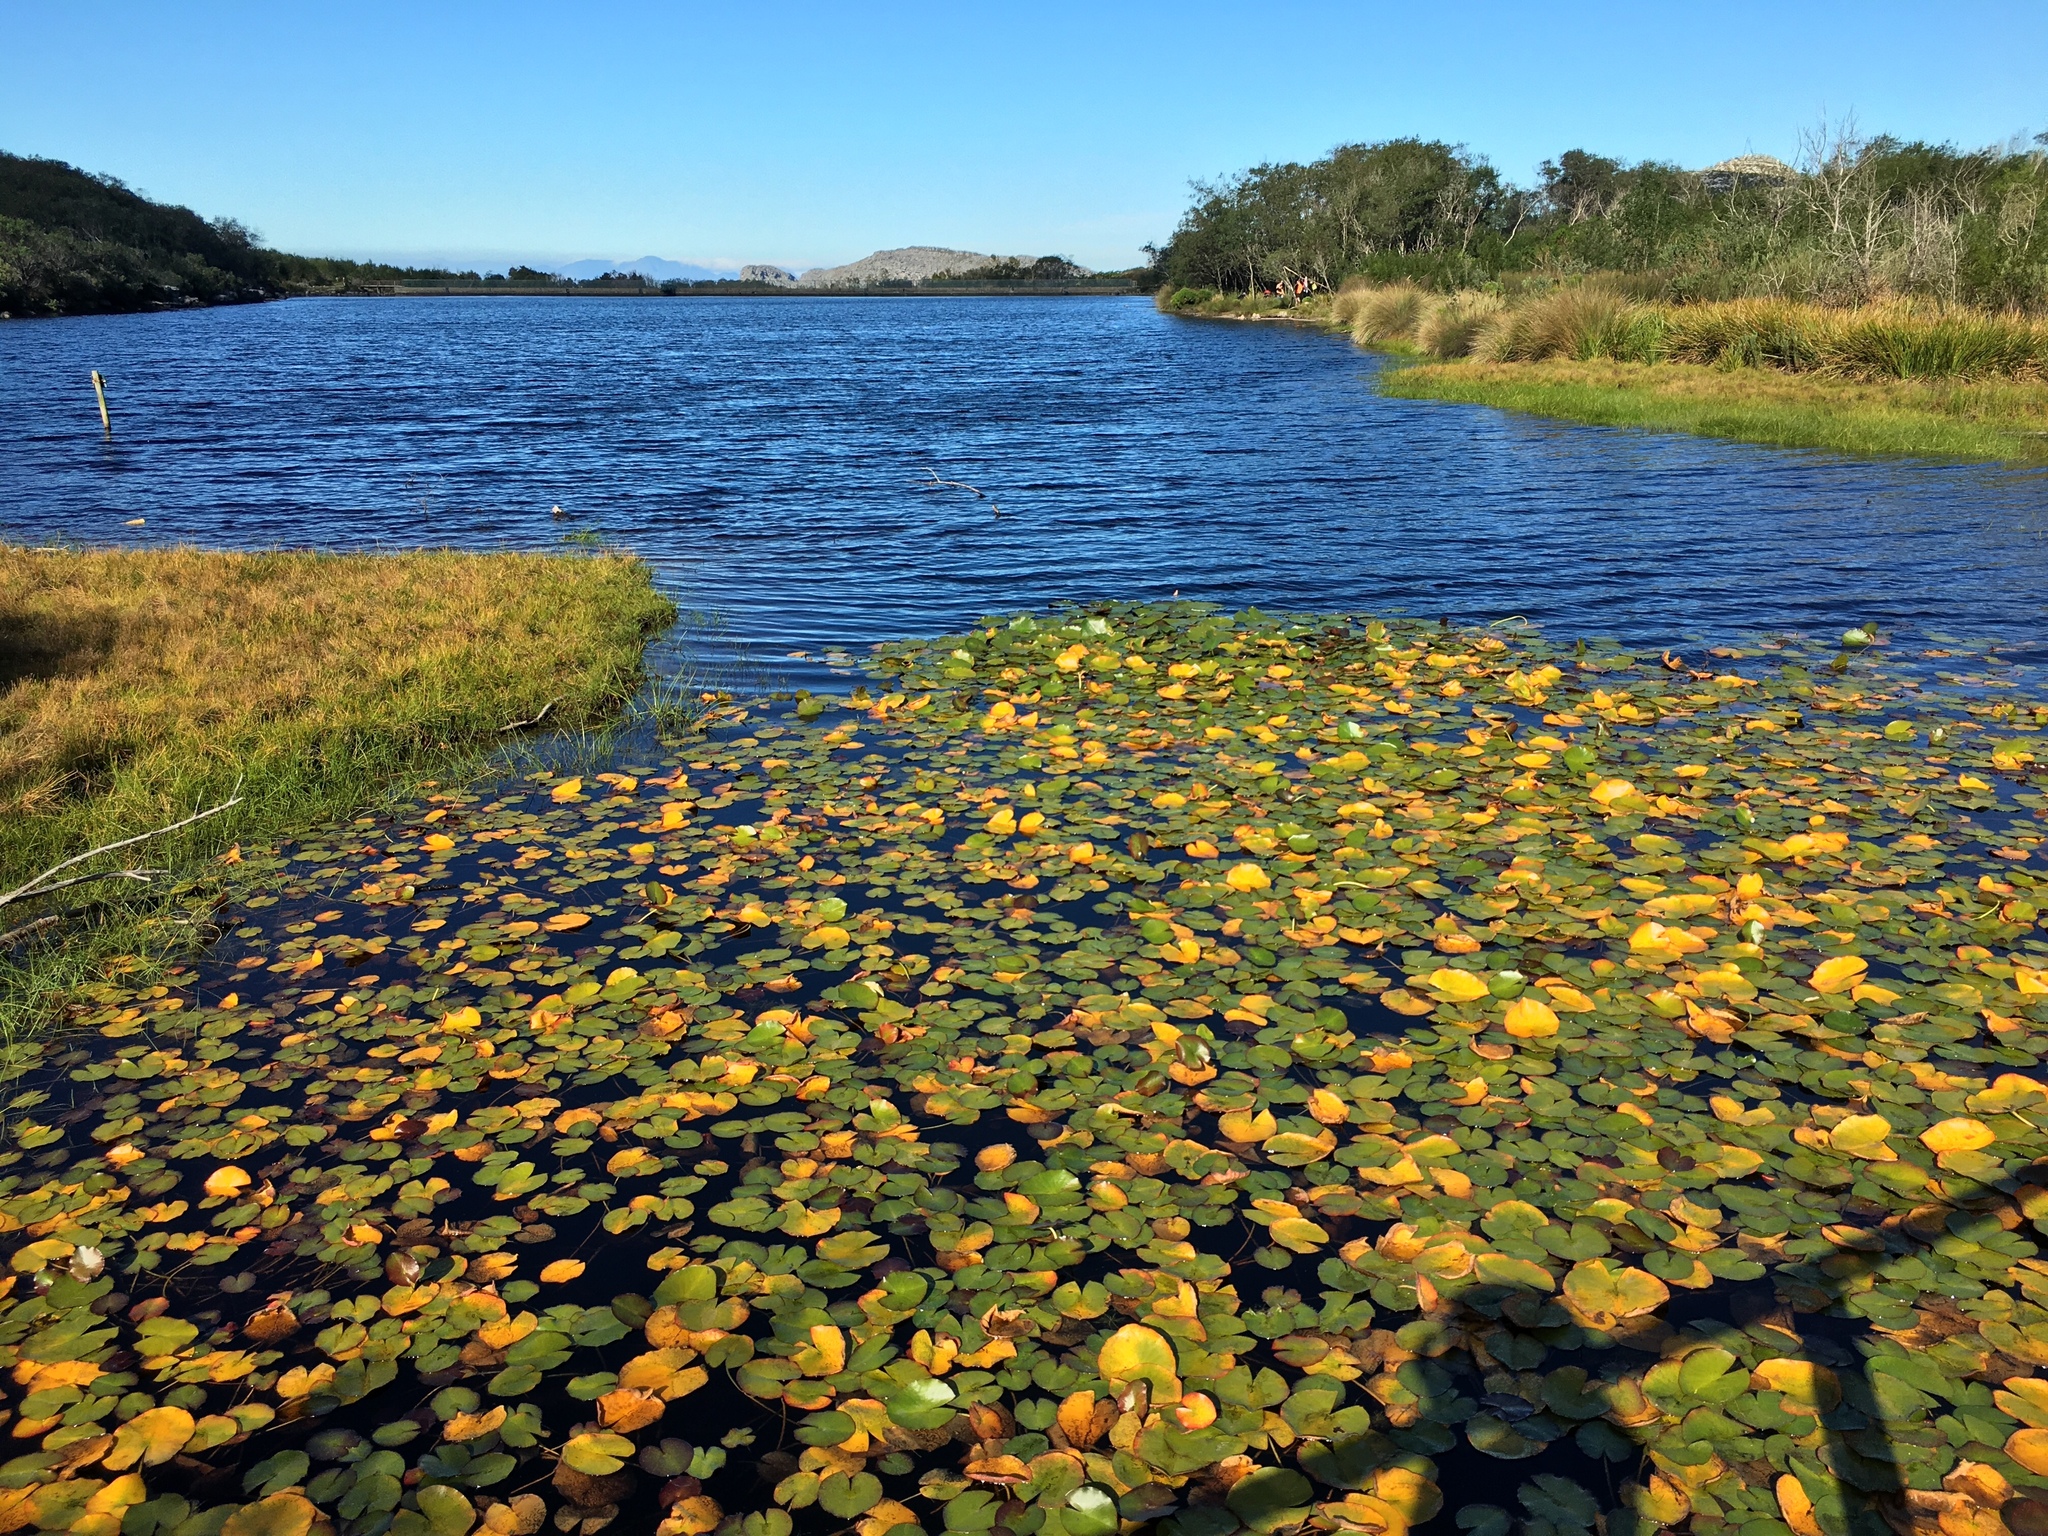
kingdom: Plantae
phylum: Tracheophyta
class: Magnoliopsida
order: Nymphaeales
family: Nymphaeaceae
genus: Nymphaea
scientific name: Nymphaea nouchali
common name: Blue lotus
